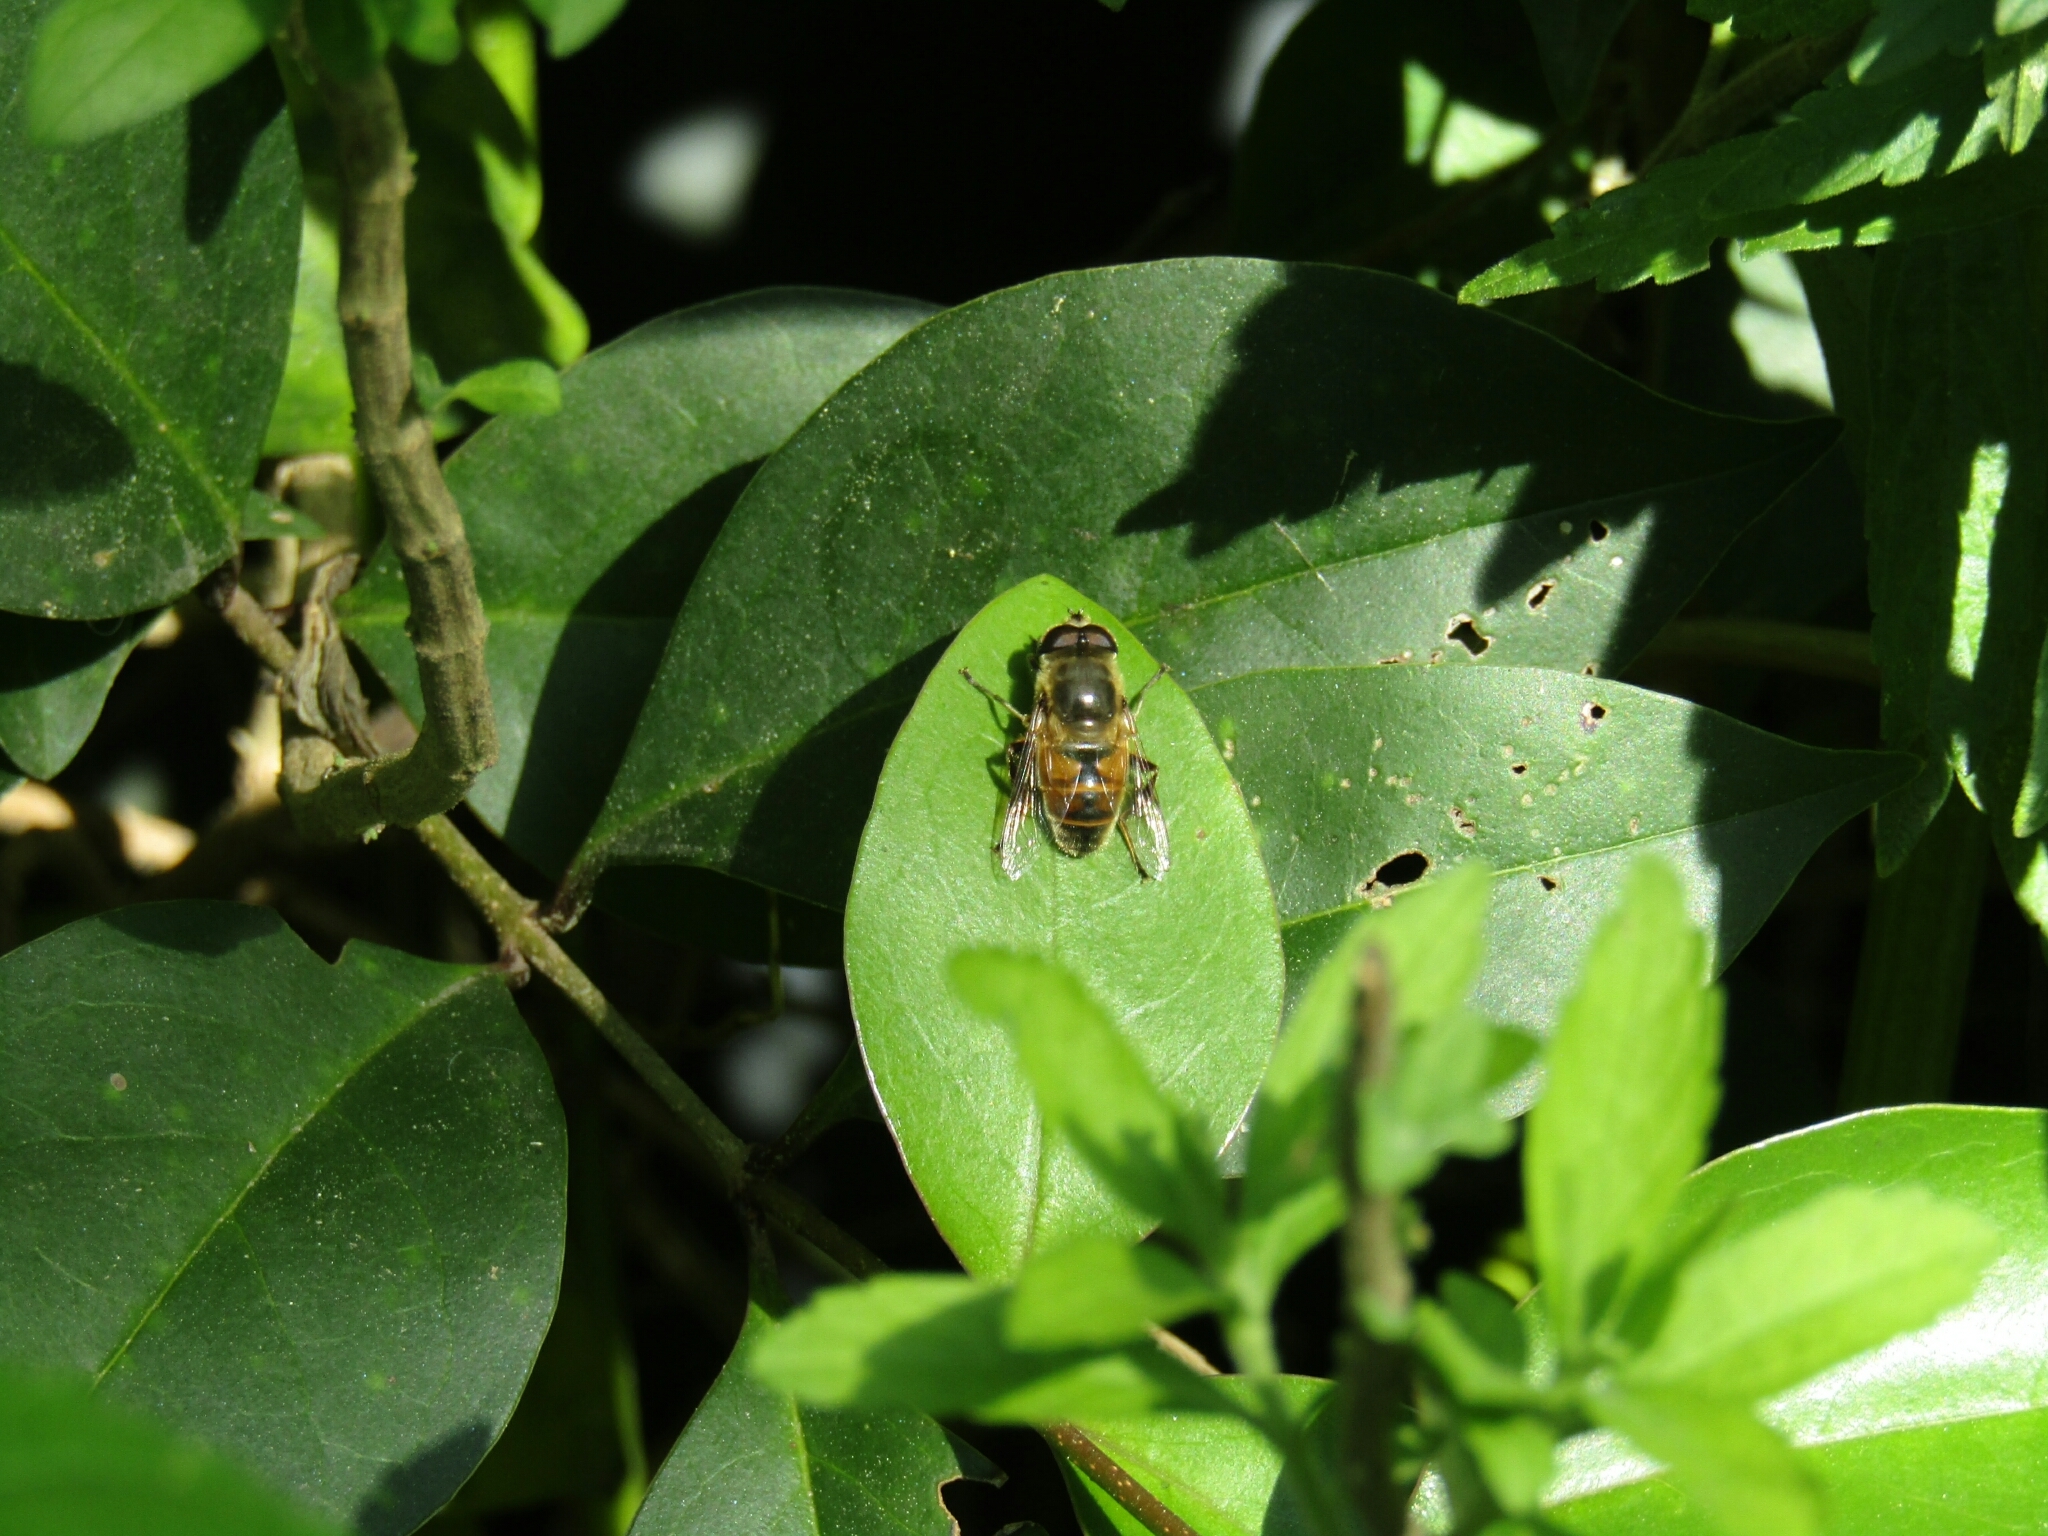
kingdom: Animalia
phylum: Arthropoda
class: Insecta
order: Diptera
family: Syrphidae
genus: Eristalis
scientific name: Eristalis tenax
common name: Drone fly
